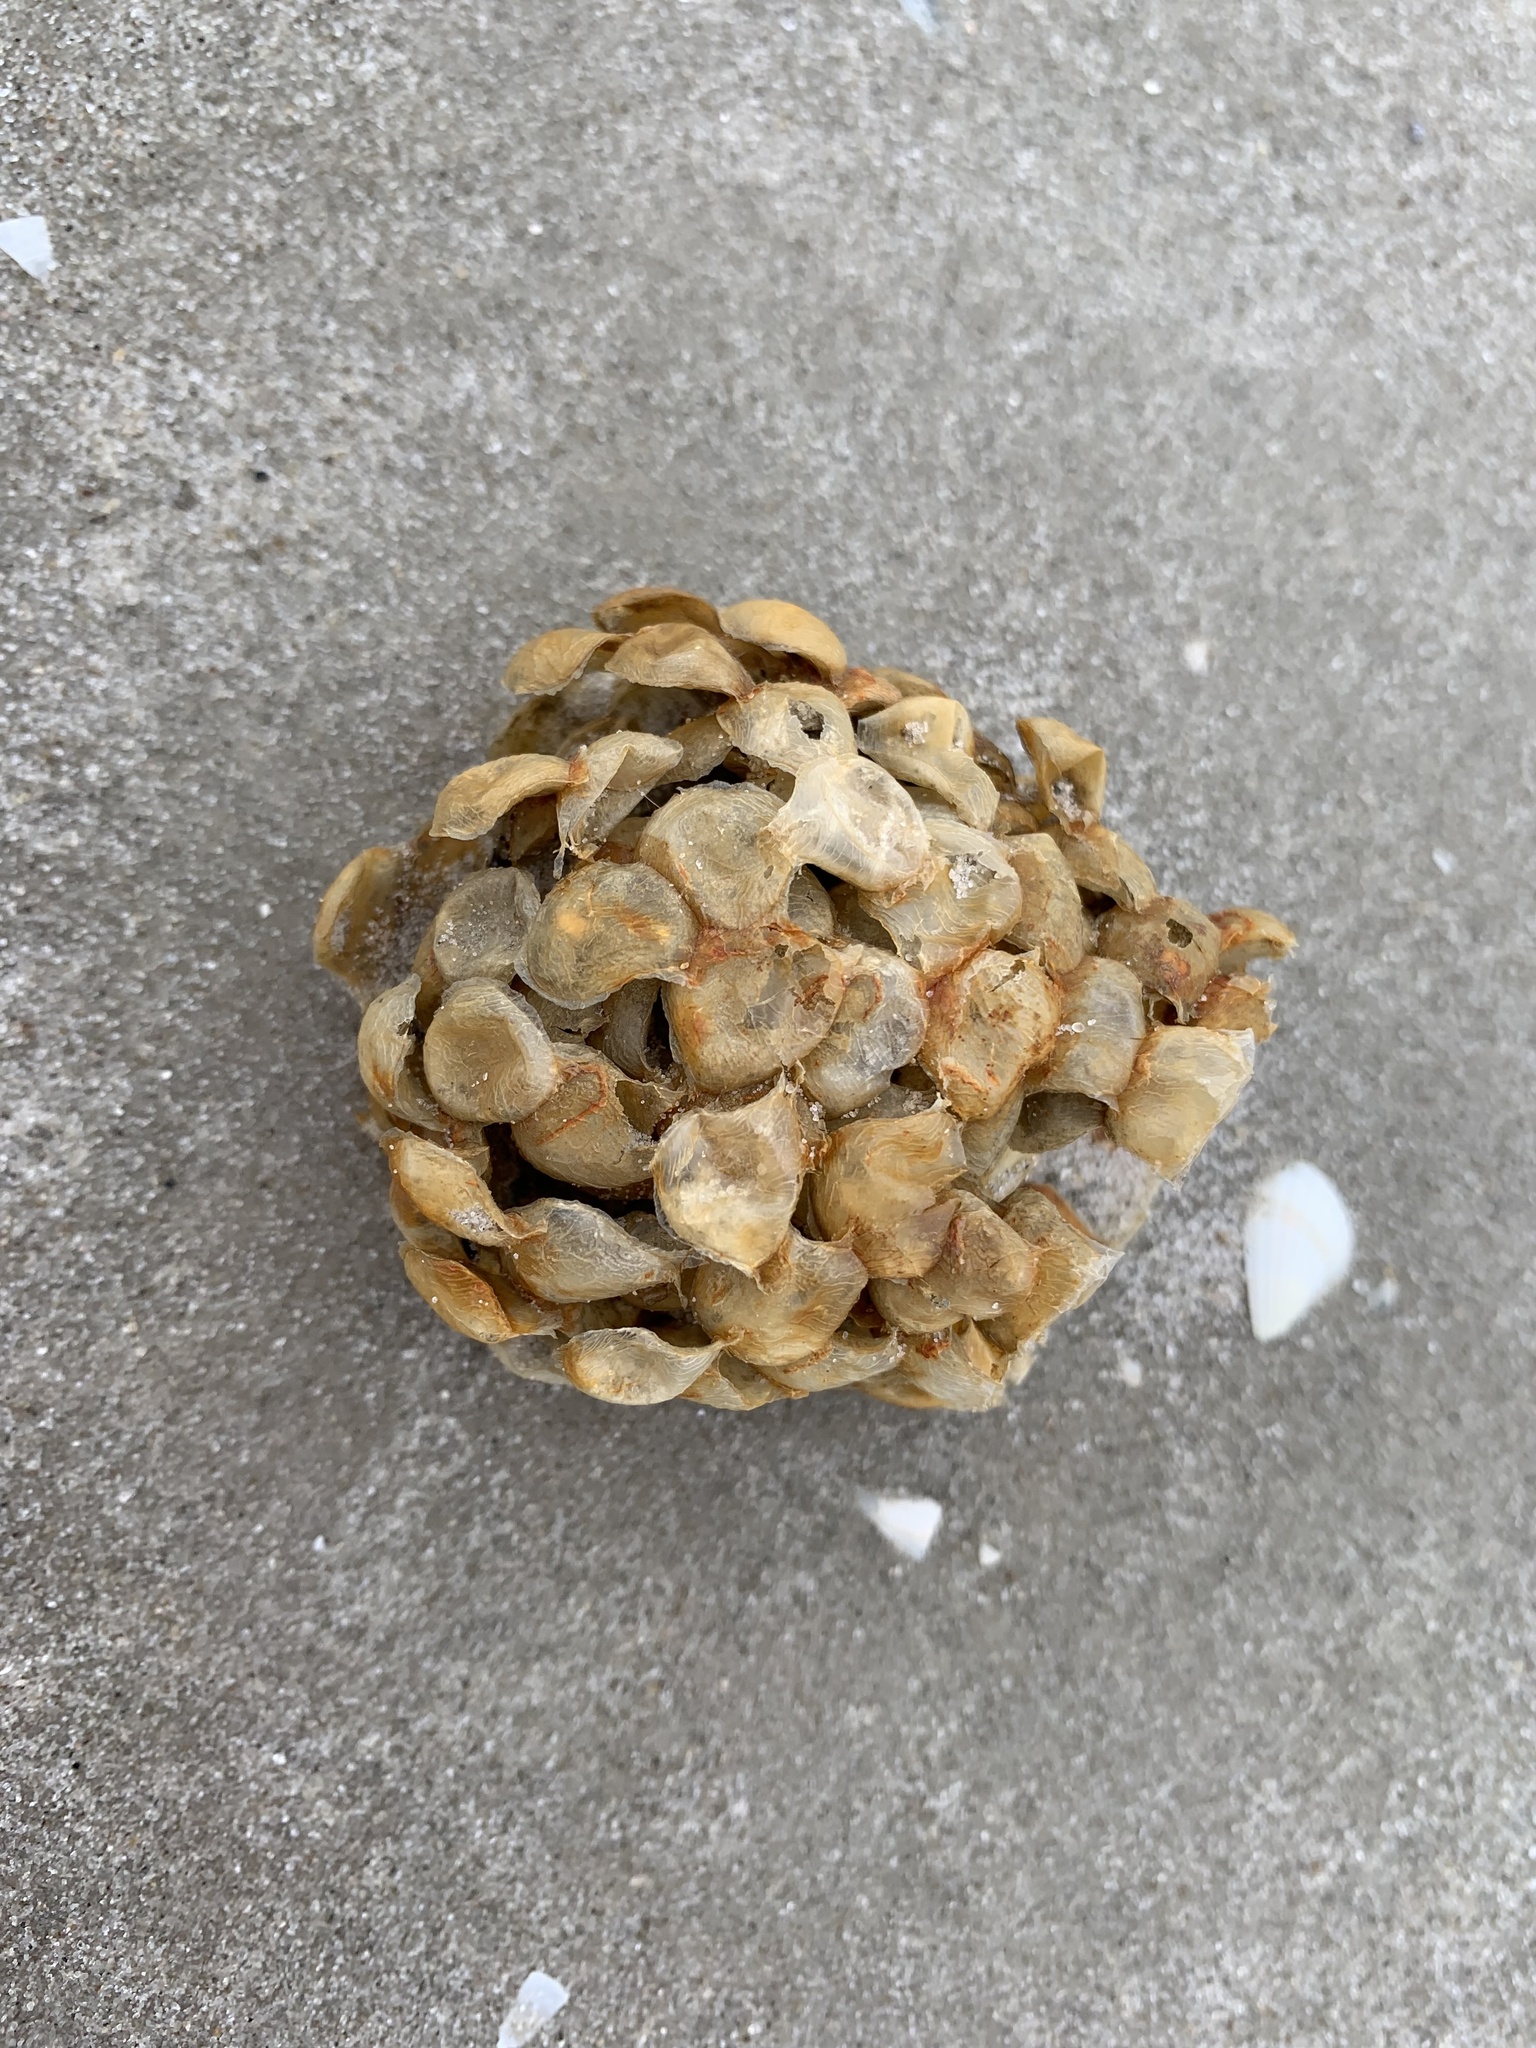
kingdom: Animalia
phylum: Mollusca
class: Gastropoda
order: Neogastropoda
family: Buccinidae
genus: Buccinum
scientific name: Buccinum undatum
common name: Common whelk
